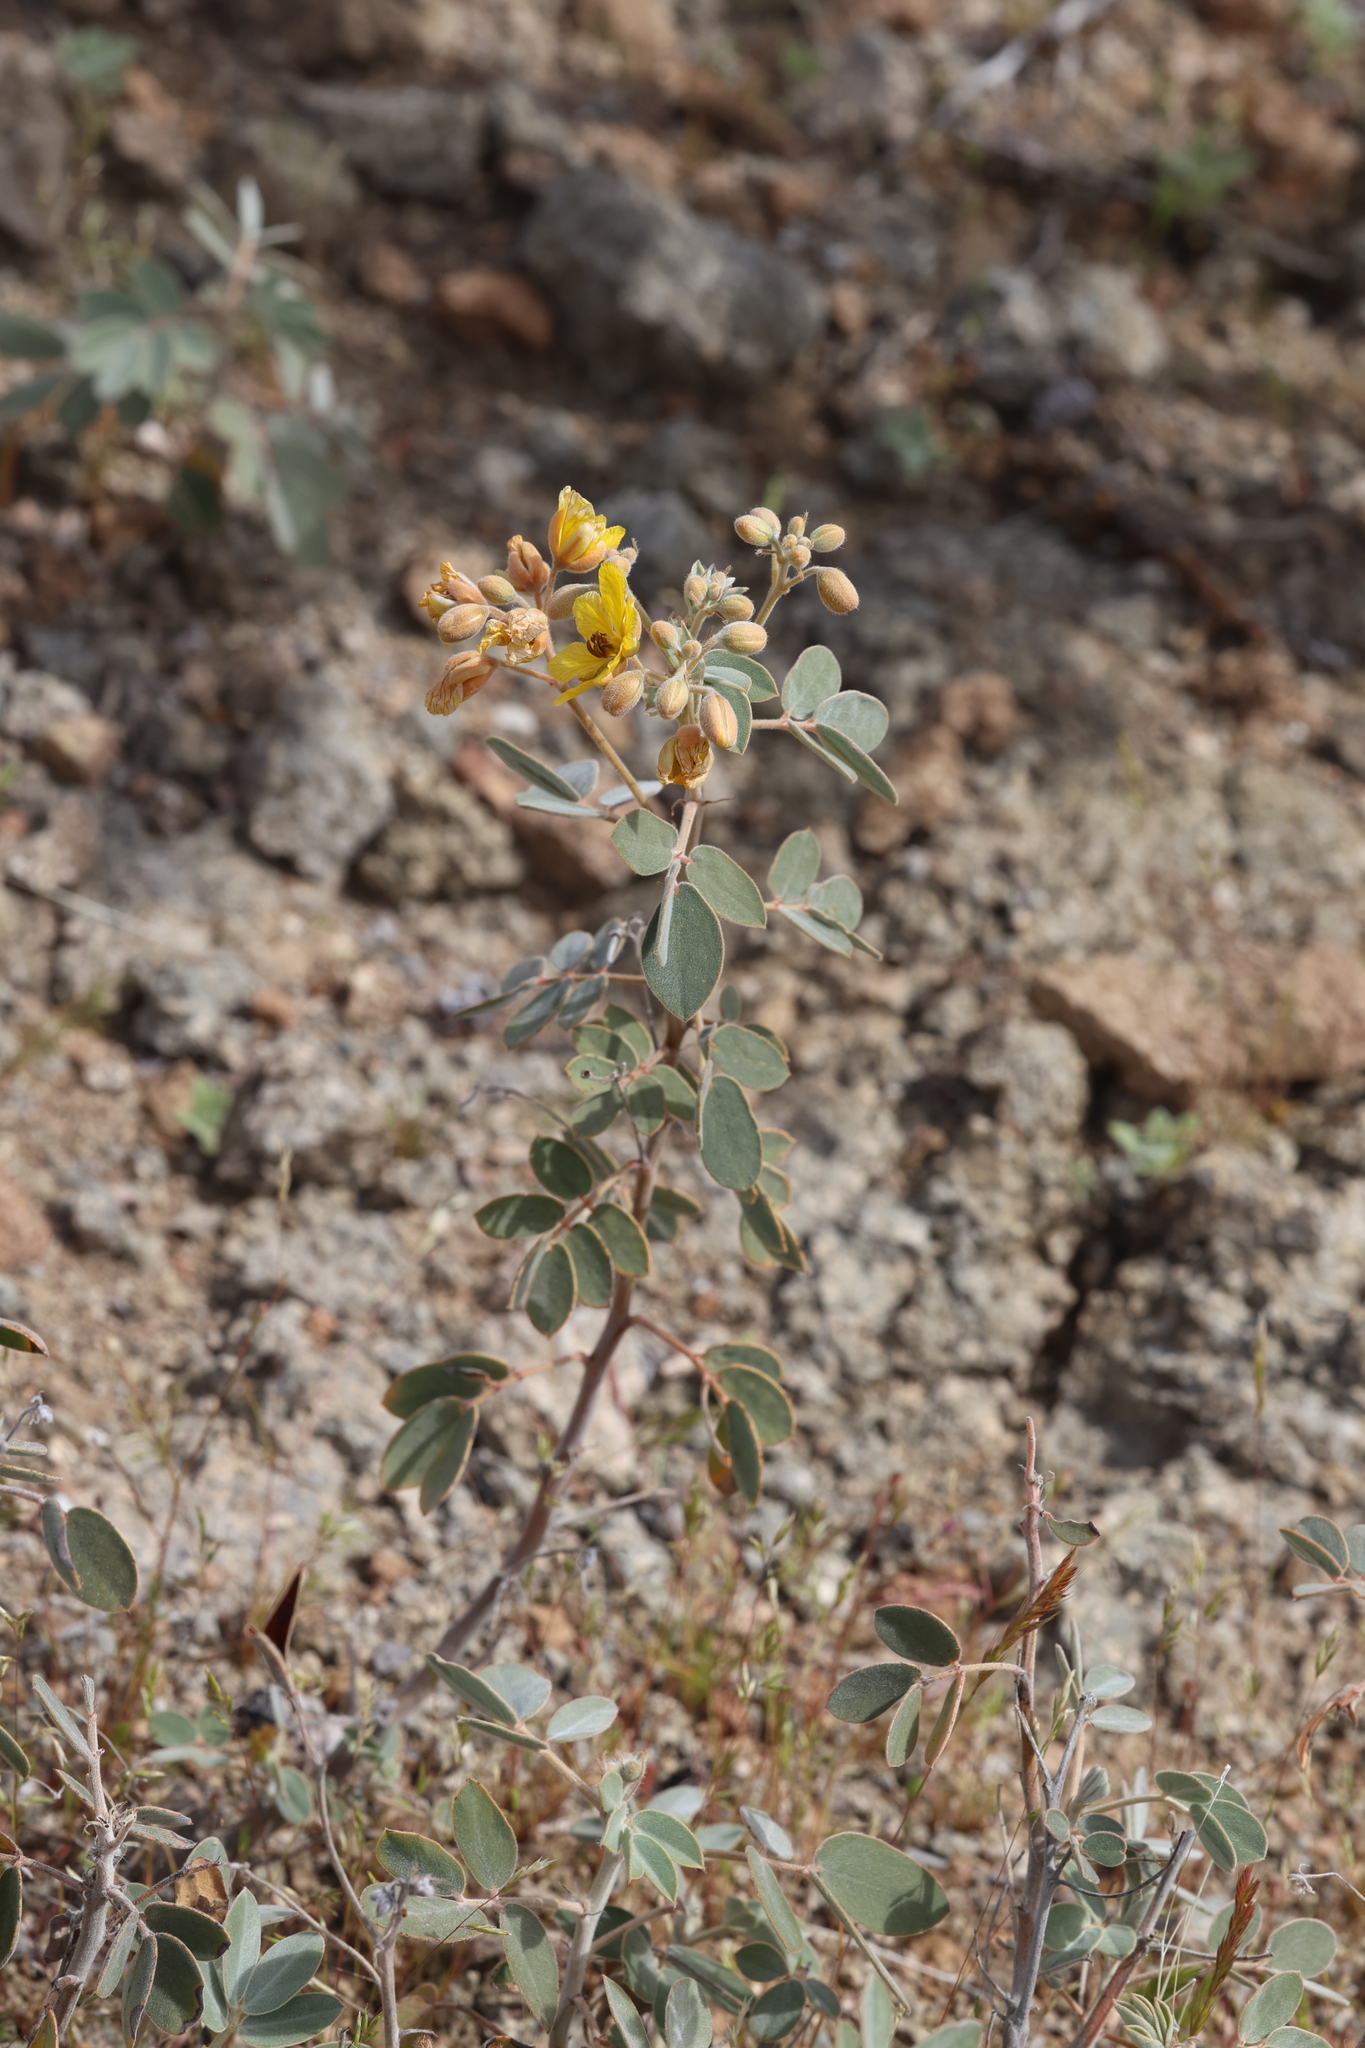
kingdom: Plantae
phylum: Tracheophyta
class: Magnoliopsida
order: Fabales
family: Fabaceae
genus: Senna
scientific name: Senna covesii
